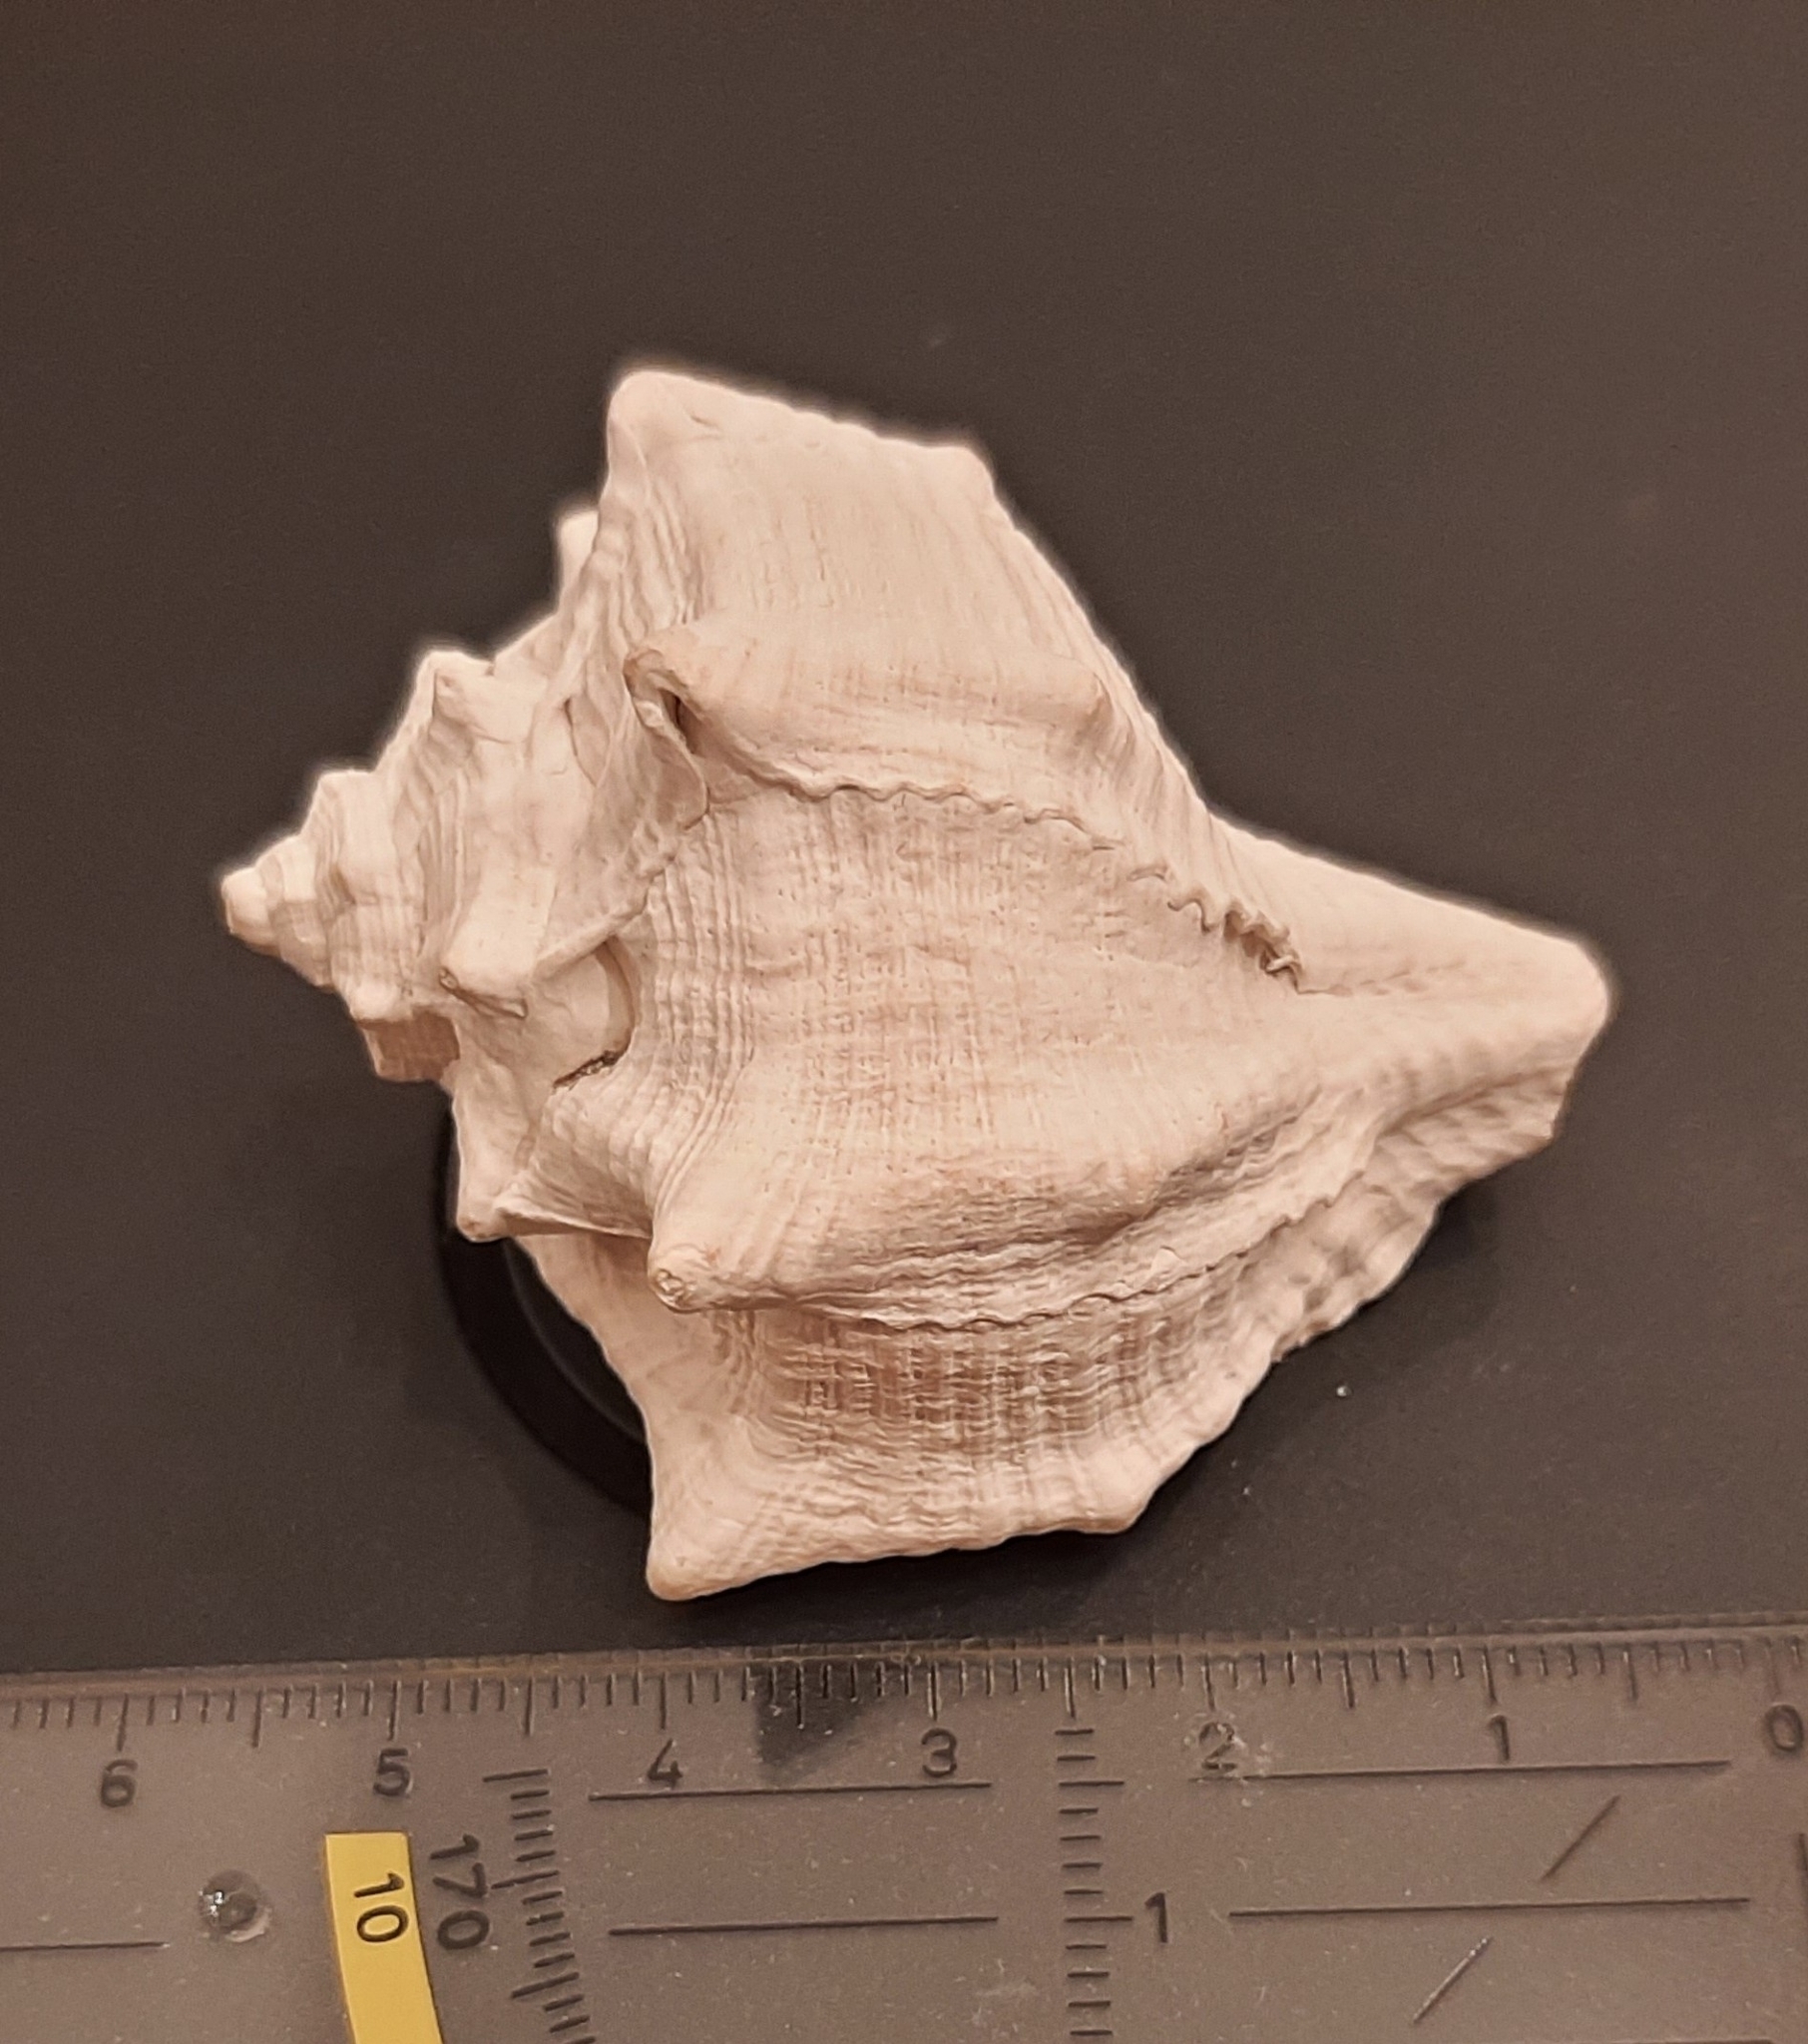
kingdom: Animalia
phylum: Mollusca
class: Gastropoda
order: Neogastropoda
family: Muricidae
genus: Bolinus
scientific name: Bolinus brandaris
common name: Dye murex
